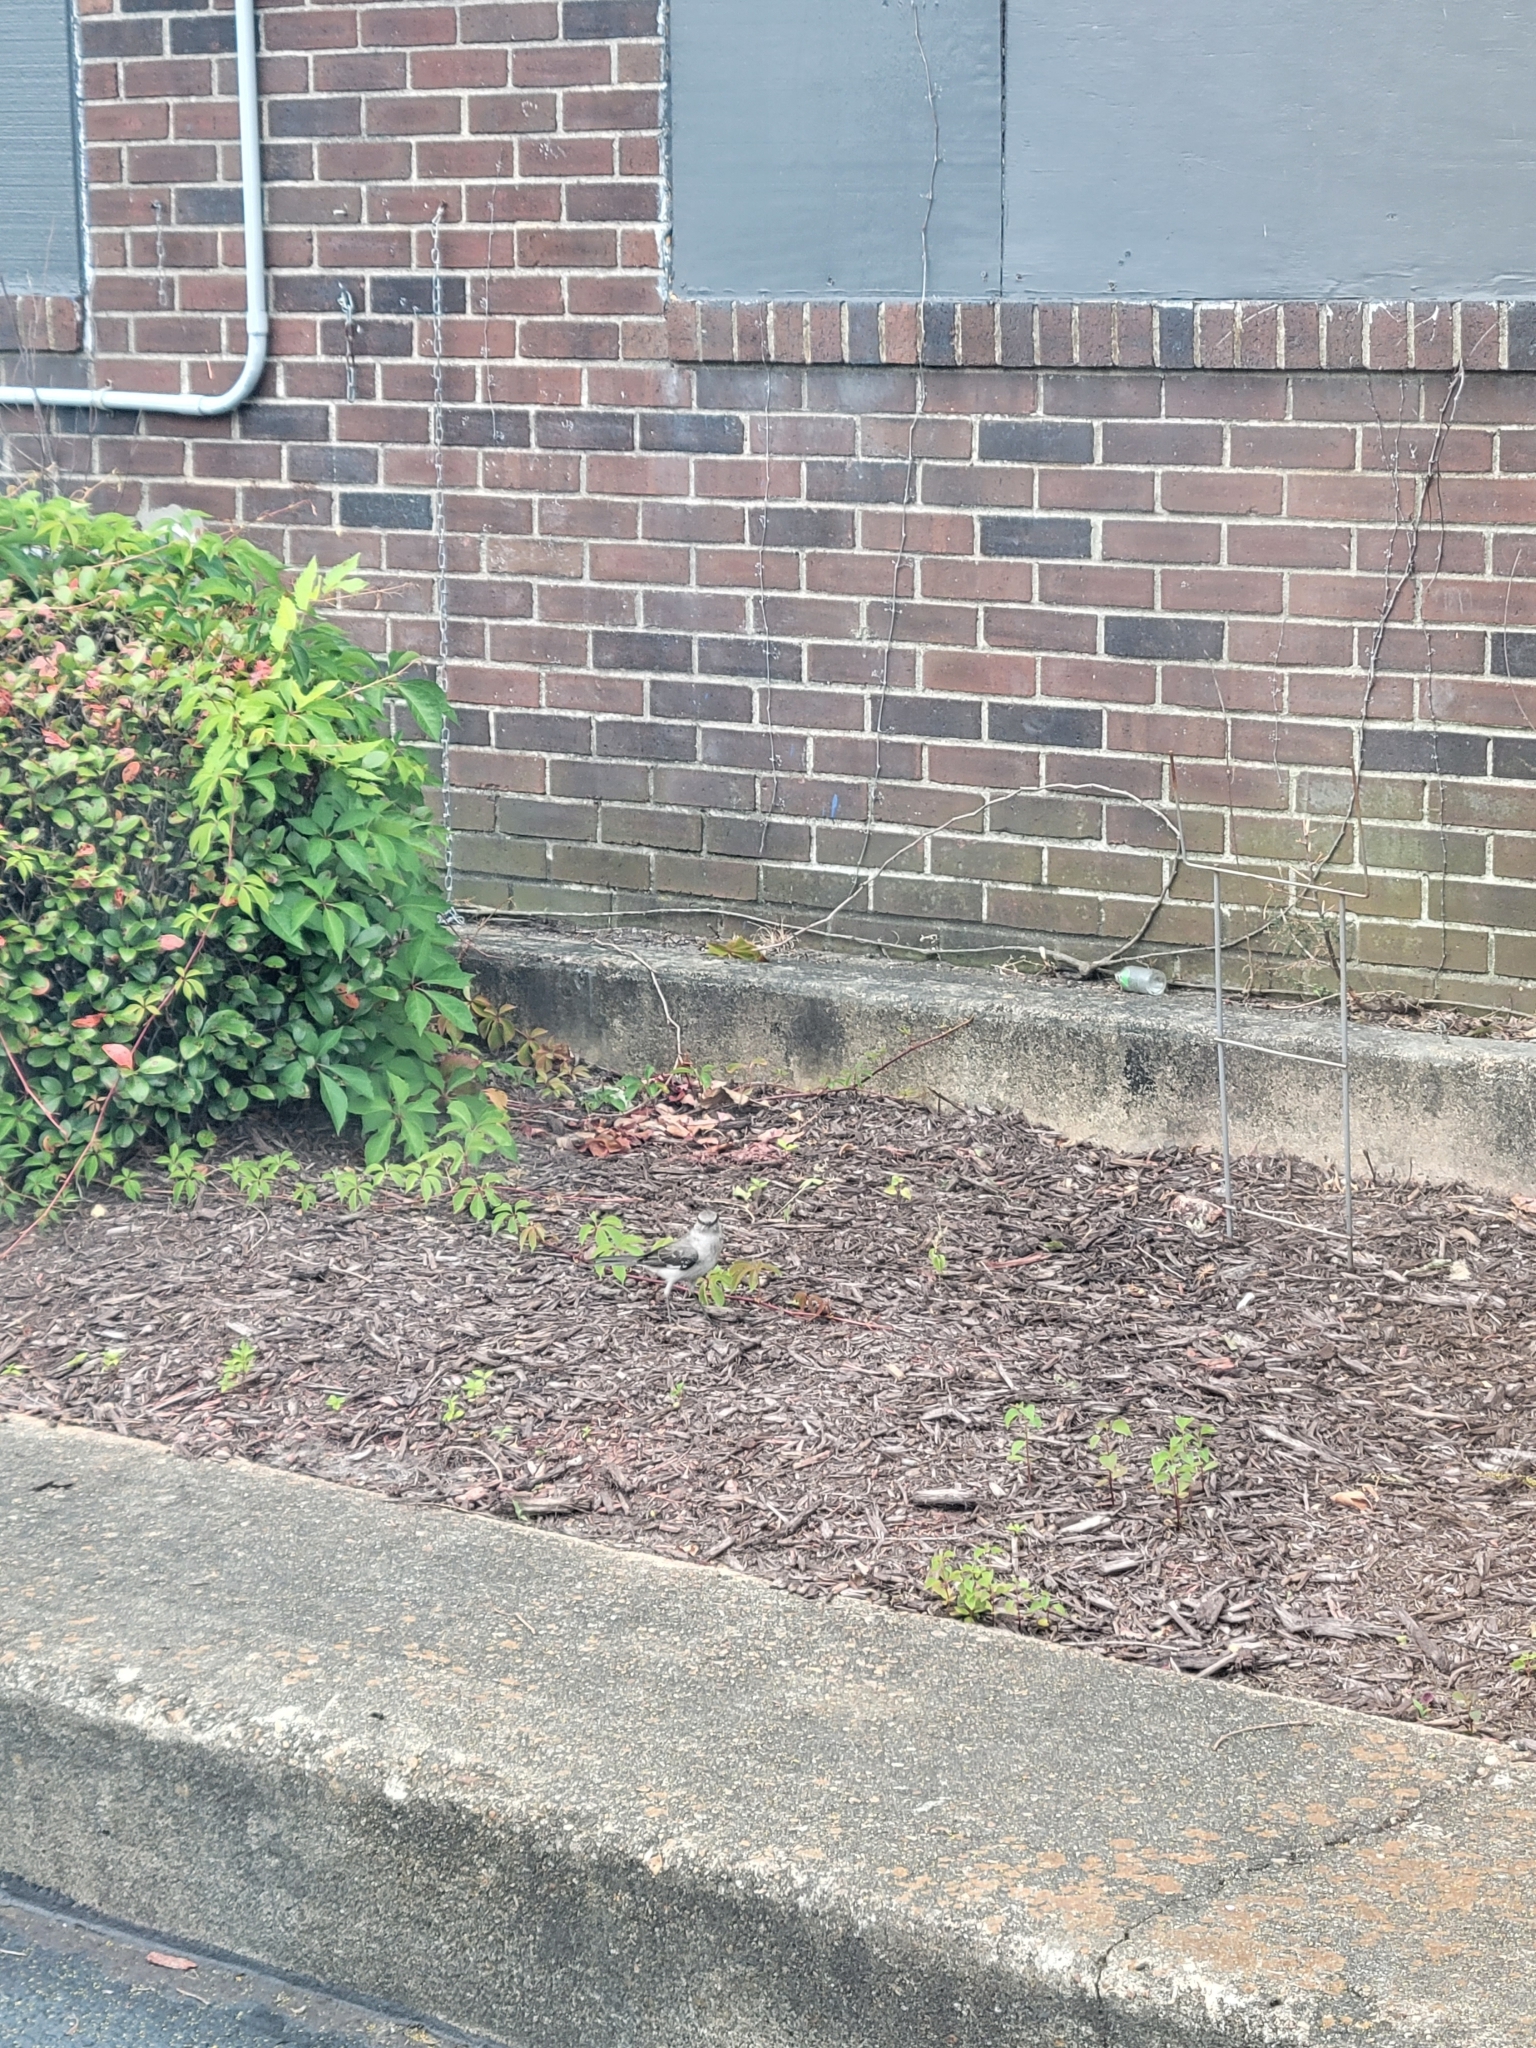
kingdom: Animalia
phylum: Chordata
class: Aves
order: Passeriformes
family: Mimidae
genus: Mimus
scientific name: Mimus polyglottos
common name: Northern mockingbird
